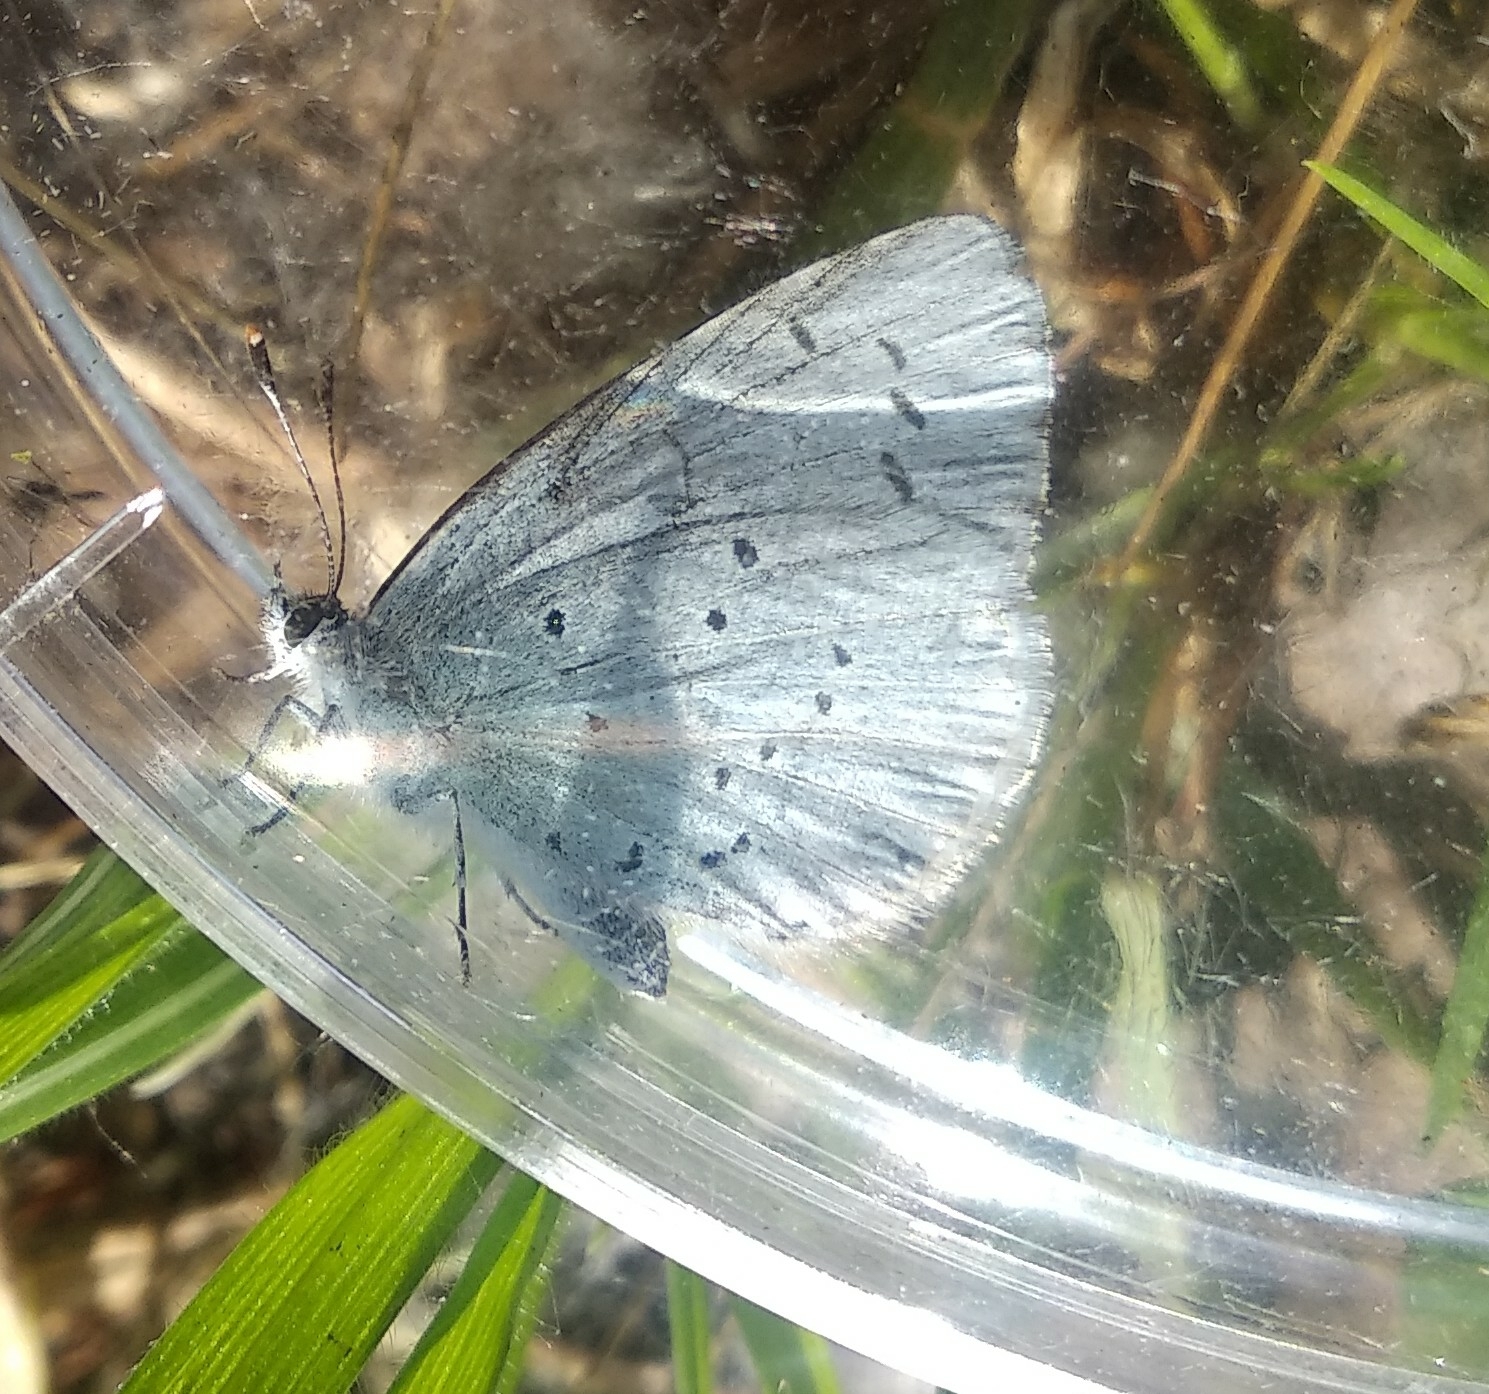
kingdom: Animalia
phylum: Arthropoda
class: Insecta
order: Lepidoptera
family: Lycaenidae
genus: Celastrina
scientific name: Celastrina argiolus
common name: Holly blue
